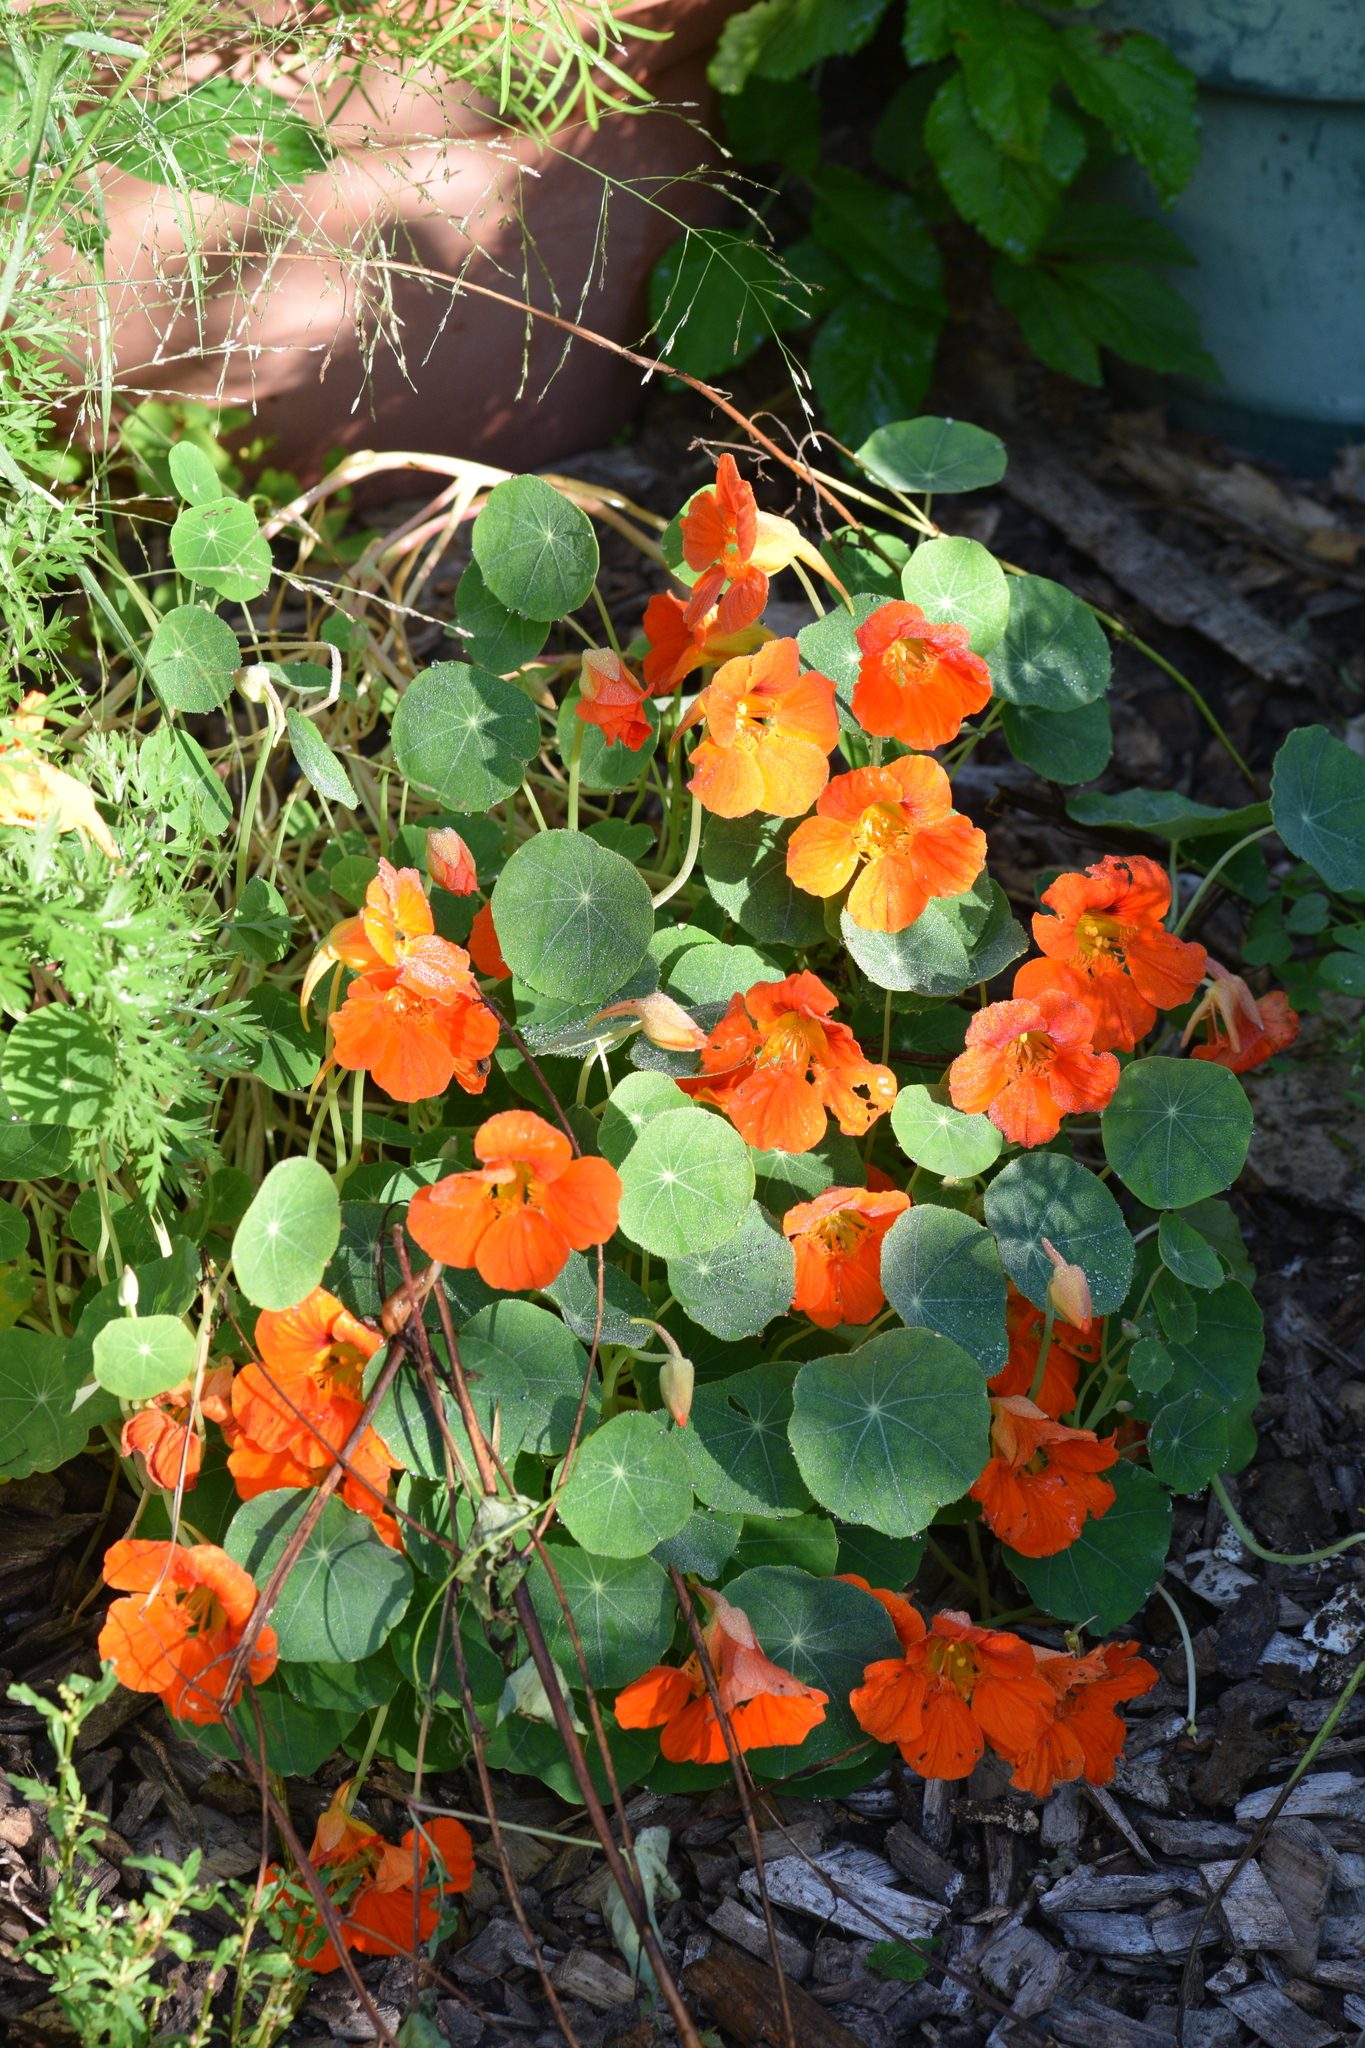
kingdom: Plantae
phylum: Tracheophyta
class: Magnoliopsida
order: Brassicales
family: Tropaeolaceae
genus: Tropaeolum
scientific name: Tropaeolum majus
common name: Nasturtium
